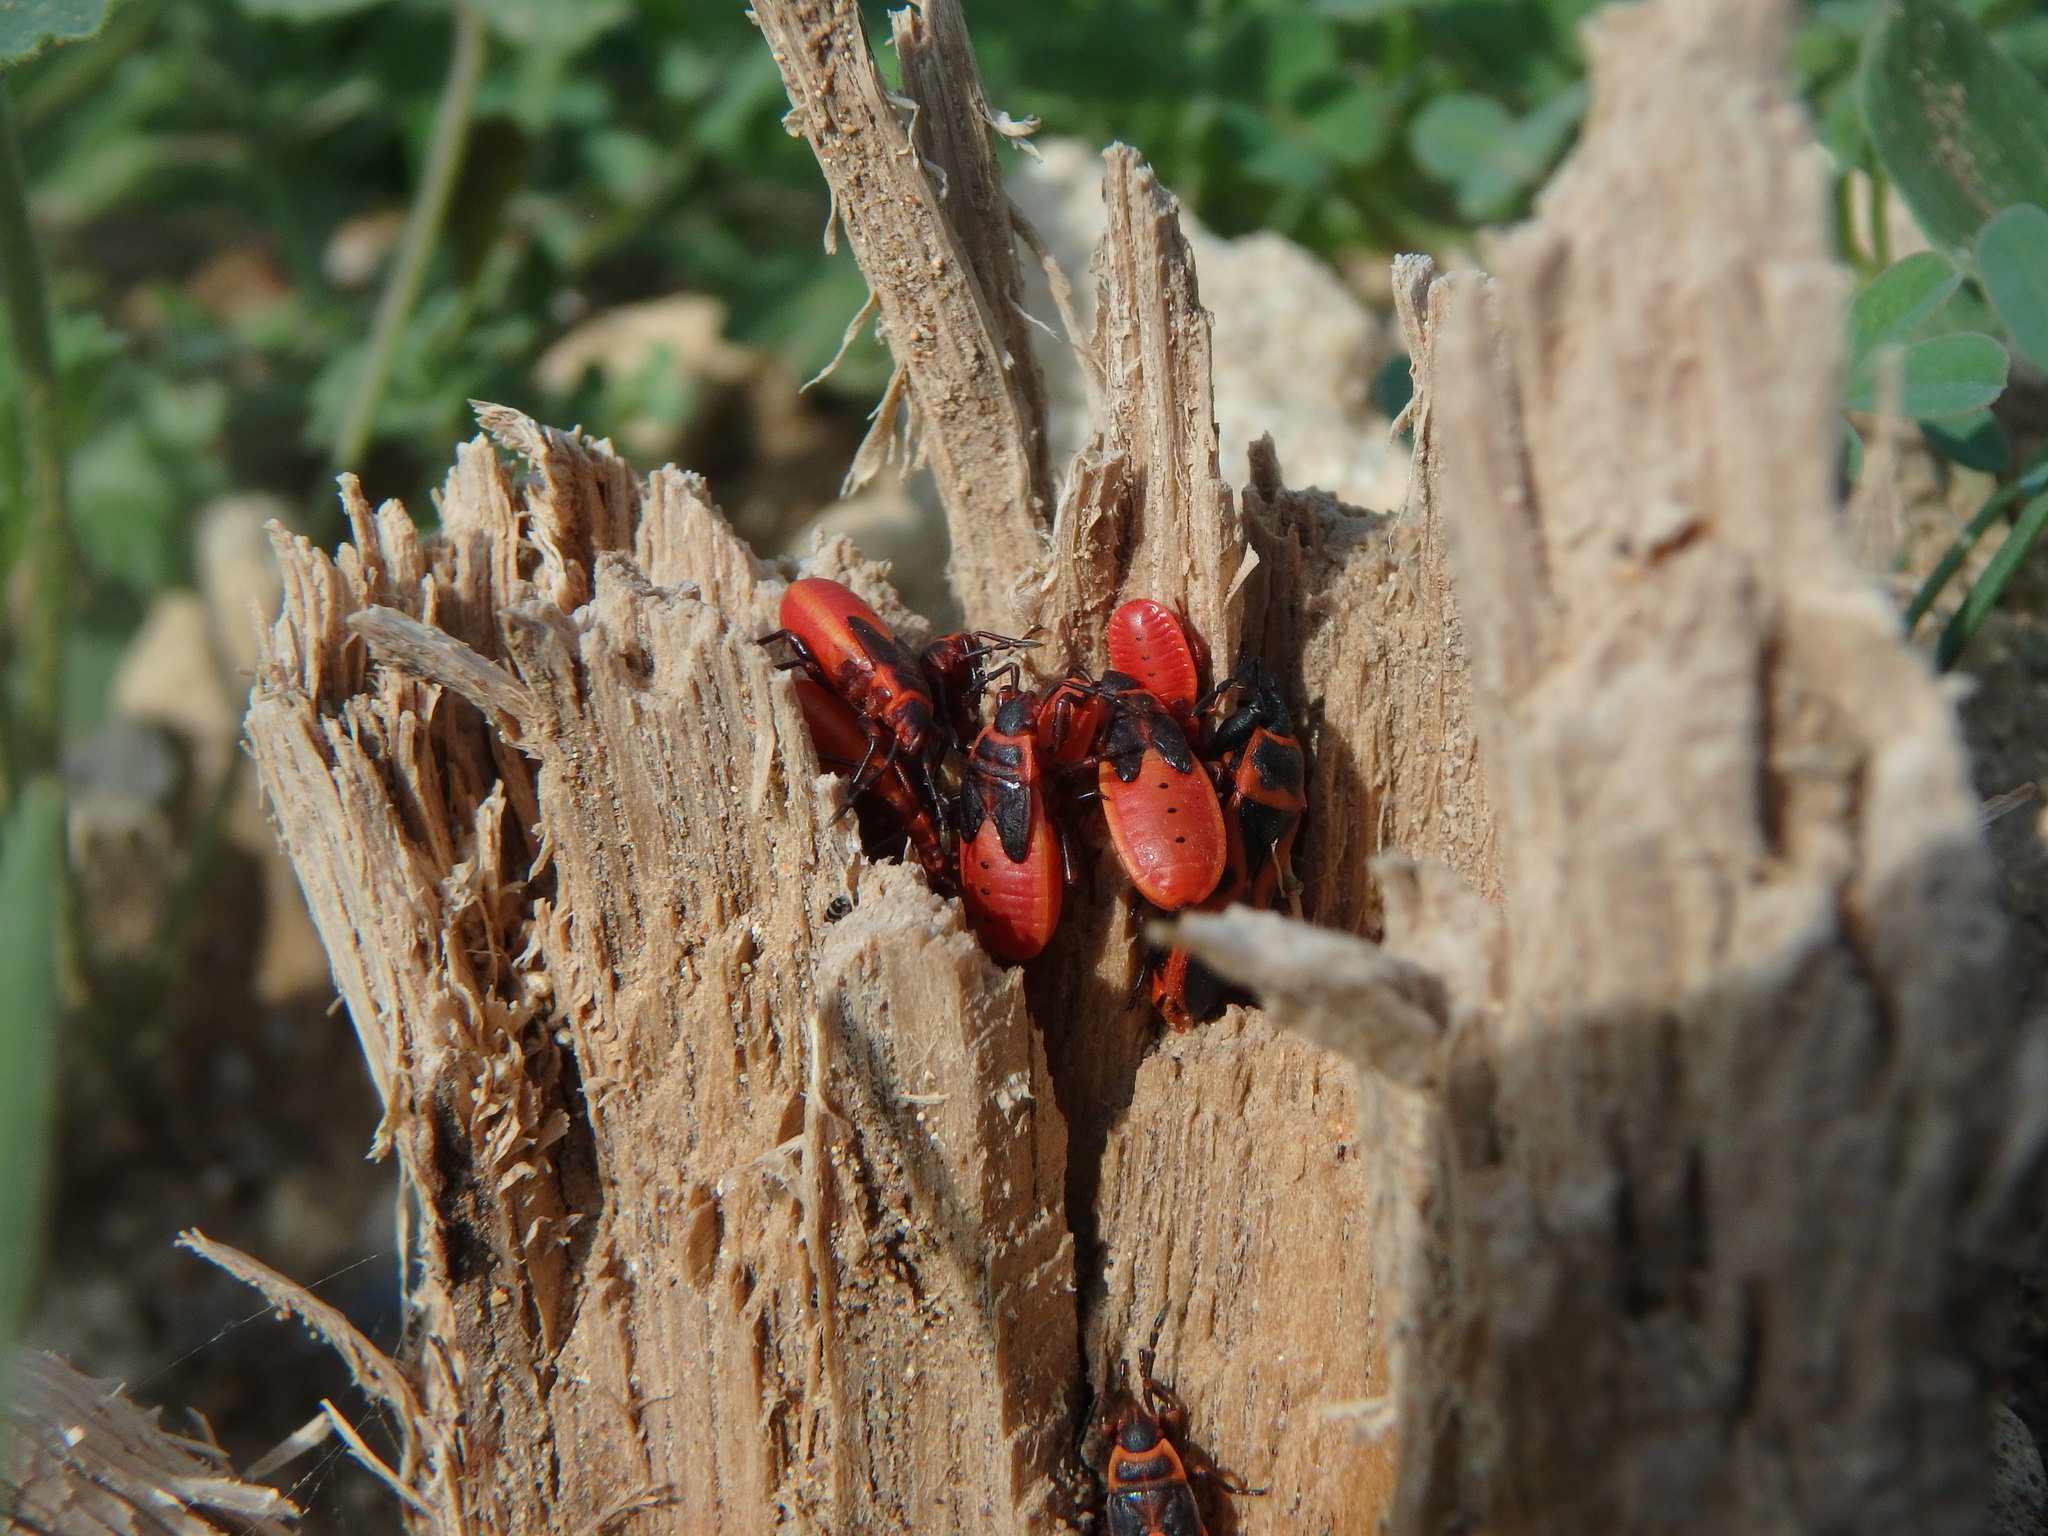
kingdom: Animalia
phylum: Arthropoda
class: Insecta
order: Hemiptera
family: Pyrrhocoridae
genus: Pyrrhocoris
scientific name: Pyrrhocoris apterus
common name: Firebug
